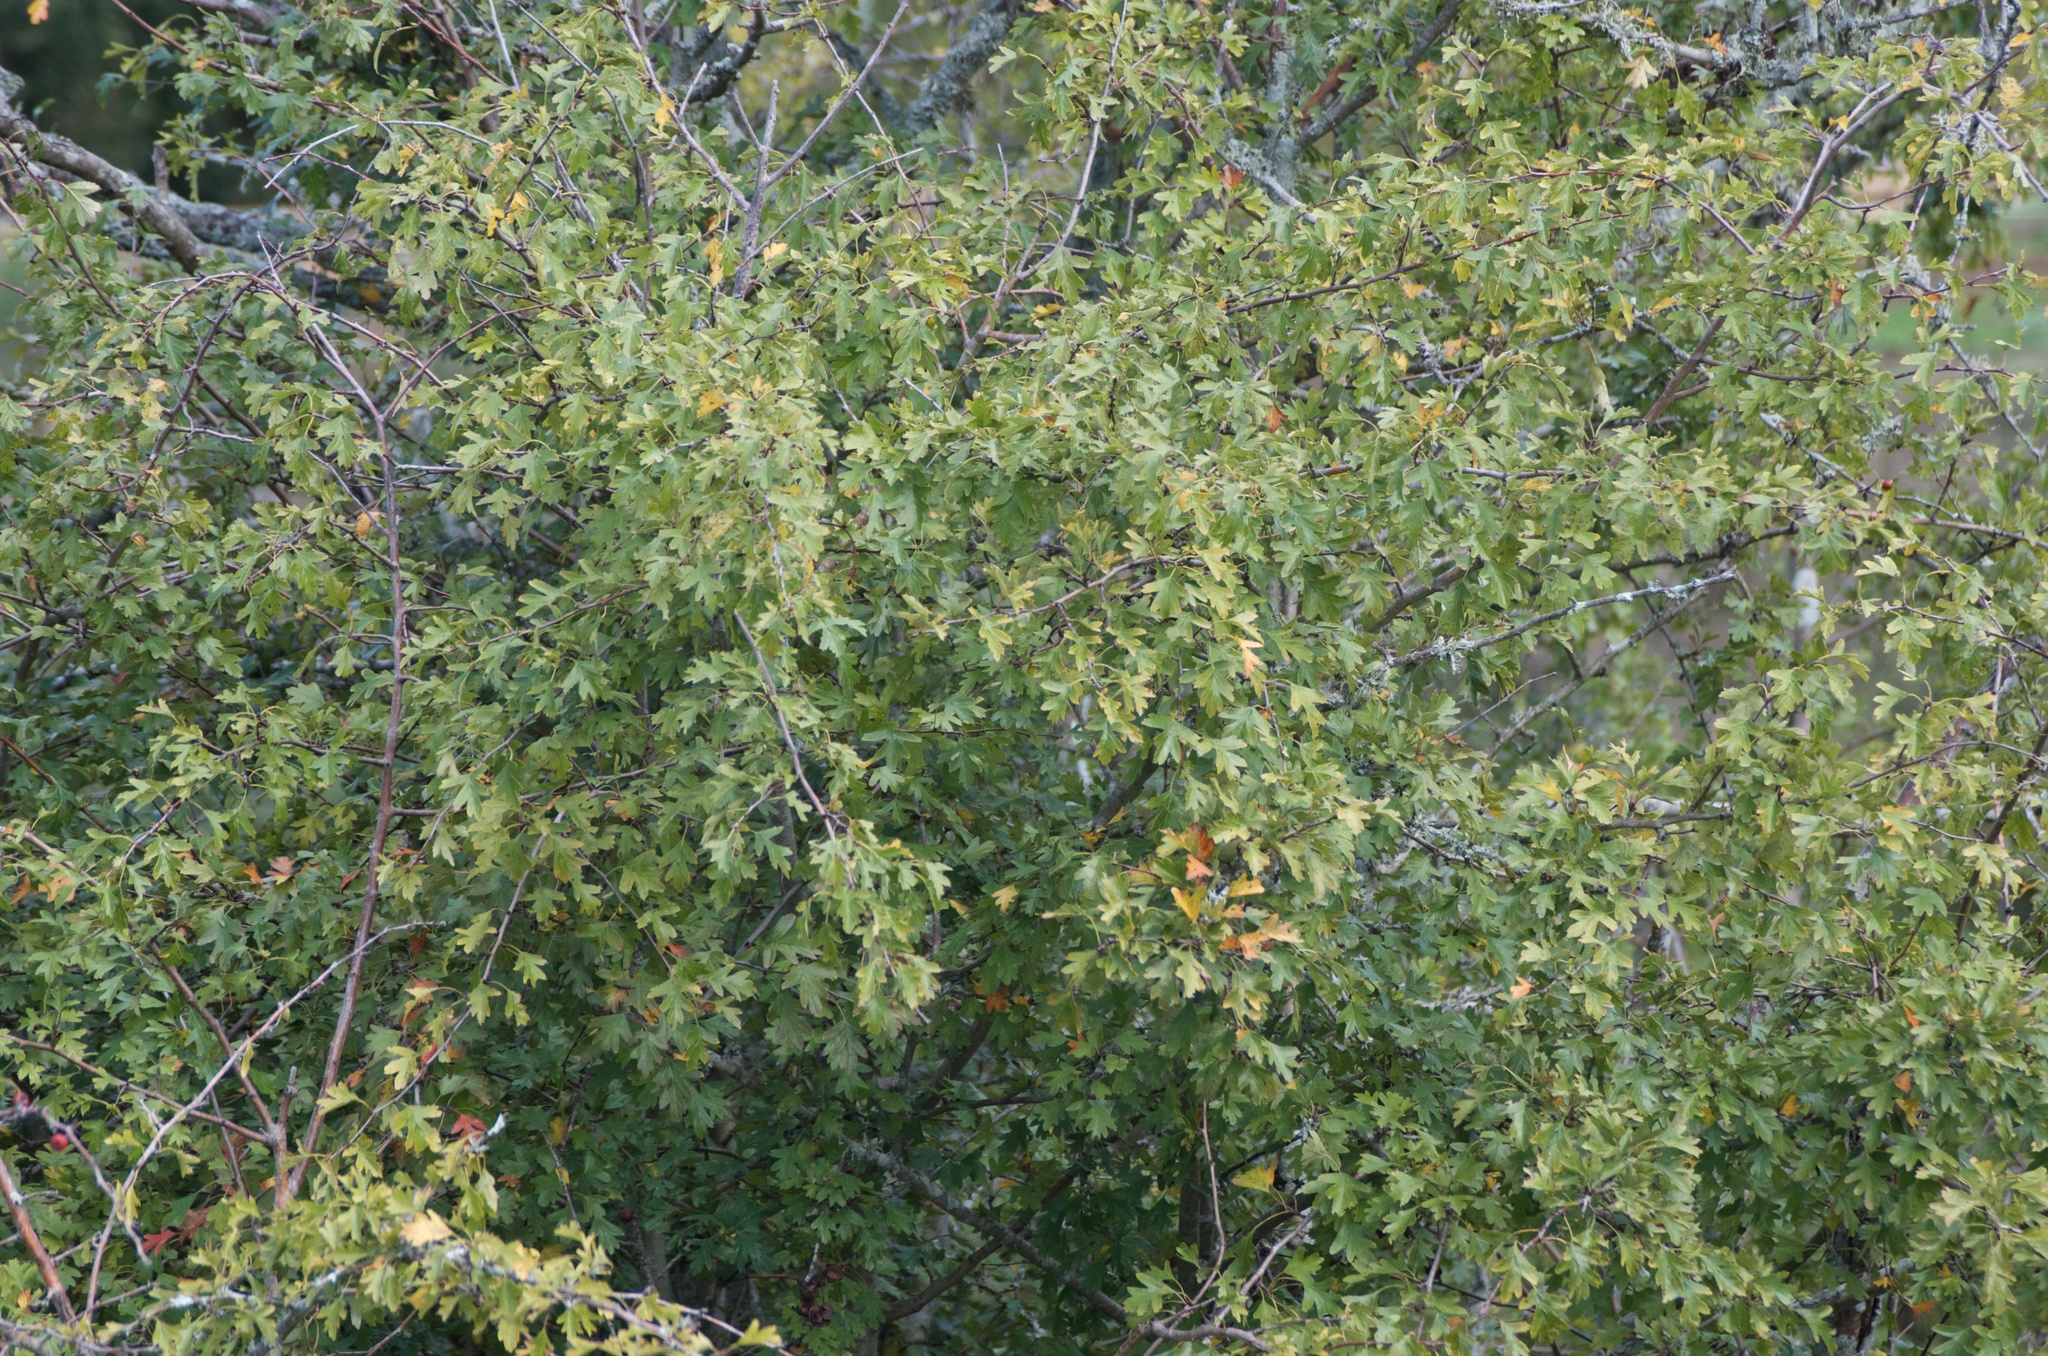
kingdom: Plantae
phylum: Tracheophyta
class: Magnoliopsida
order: Rosales
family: Rosaceae
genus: Crataegus
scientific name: Crataegus monogyna
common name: Hawthorn
